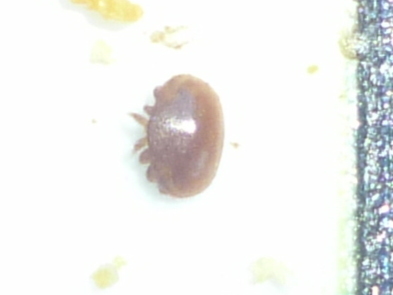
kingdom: Animalia
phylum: Arthropoda
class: Arachnida
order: Mesostigmata
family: Varroidae
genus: Varroa
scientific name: Varroa destructor
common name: Honey bee mite
